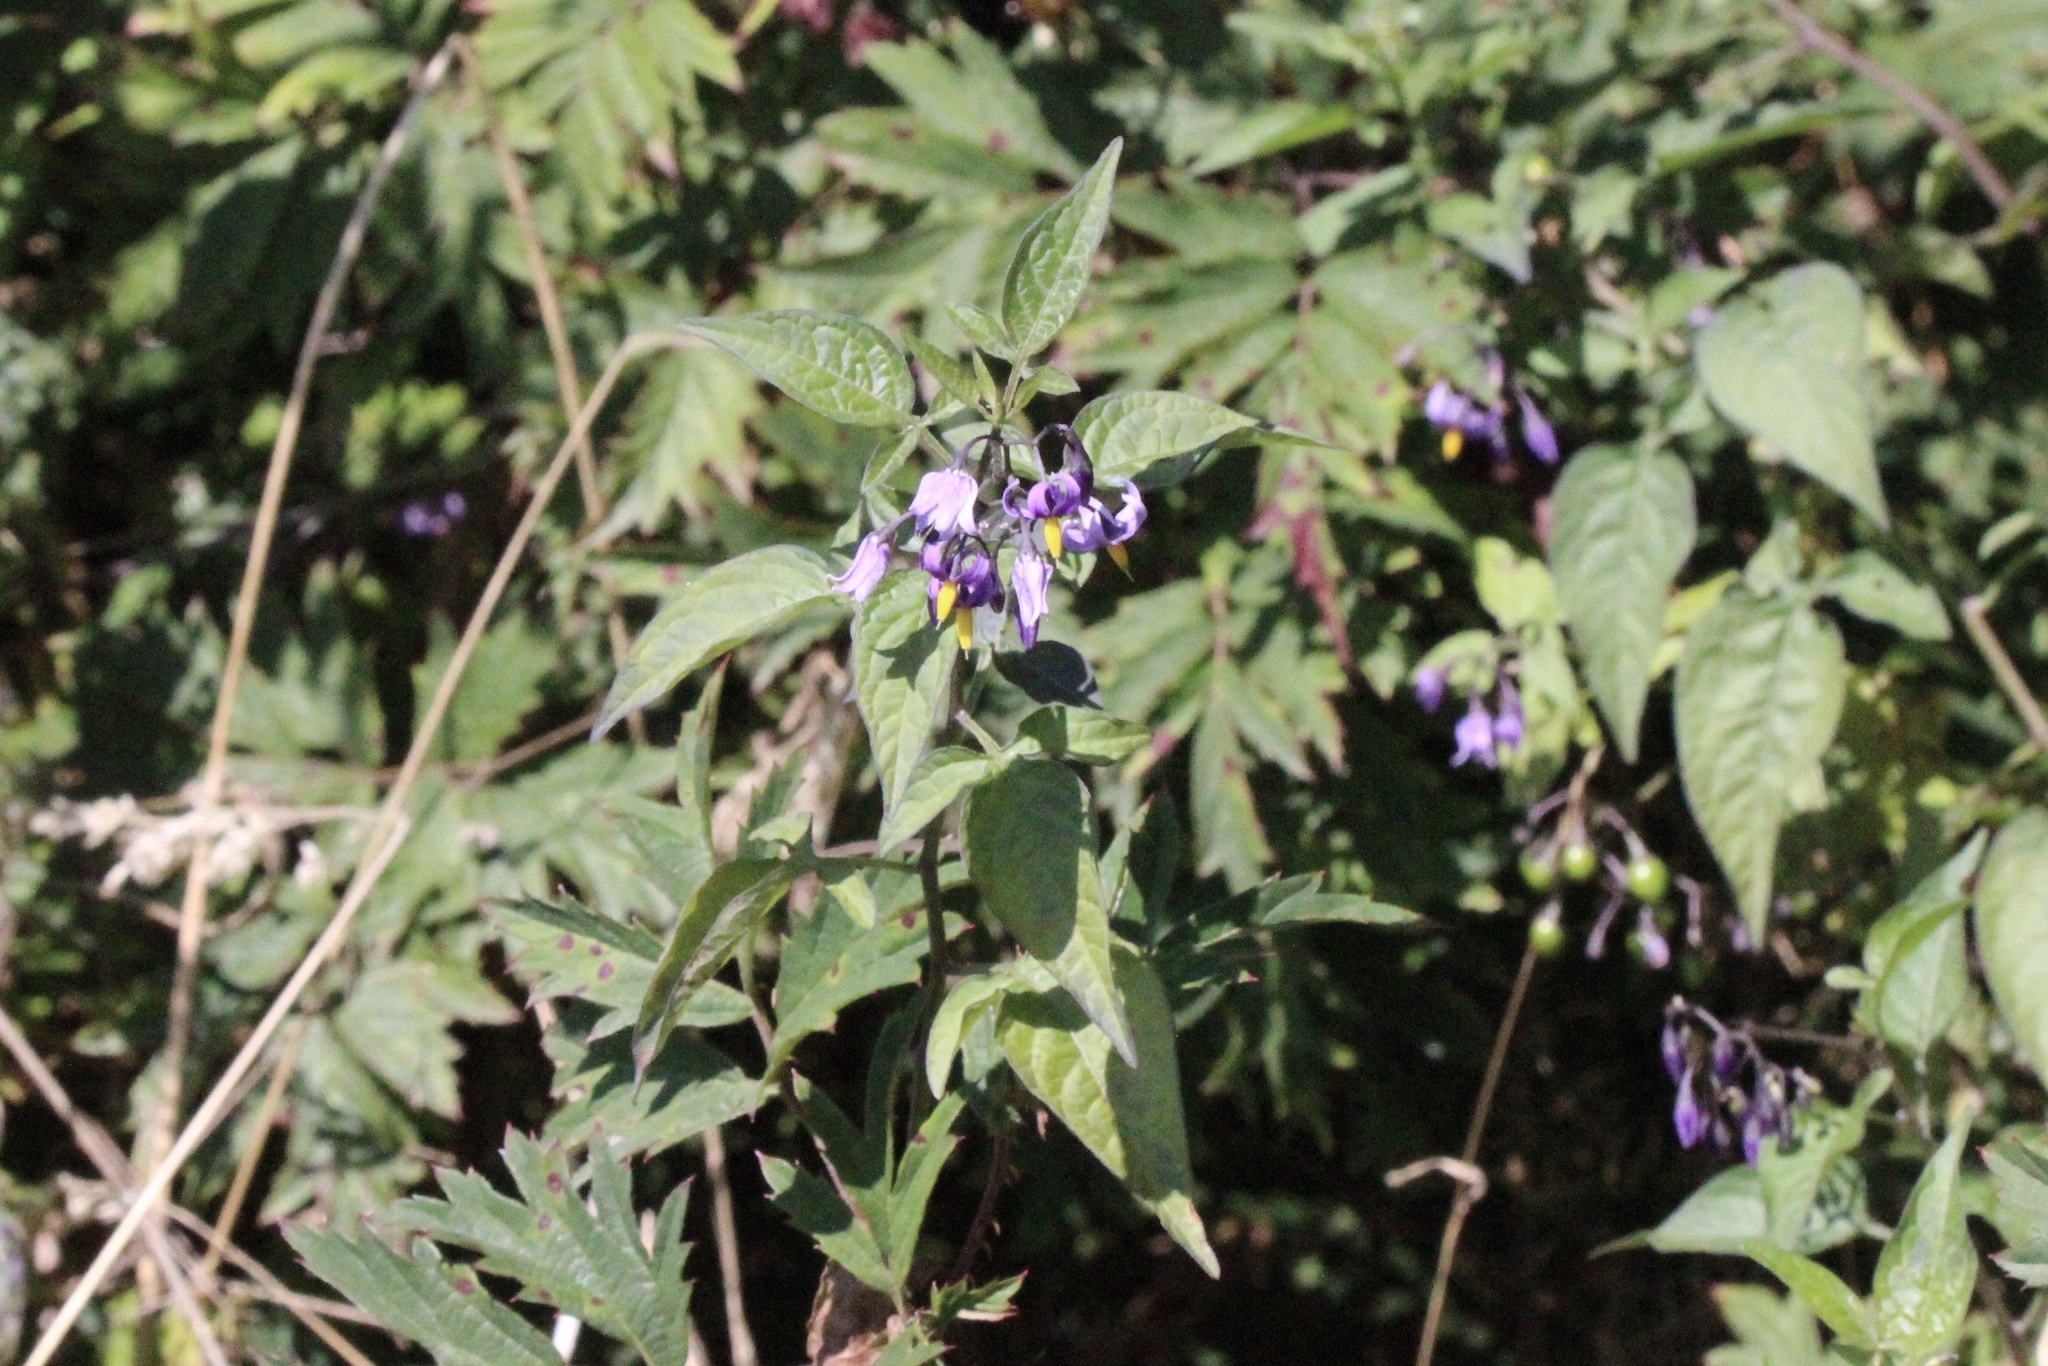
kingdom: Plantae
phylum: Tracheophyta
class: Magnoliopsida
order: Solanales
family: Solanaceae
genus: Solanum
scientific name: Solanum dulcamara
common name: Climbing nightshade
